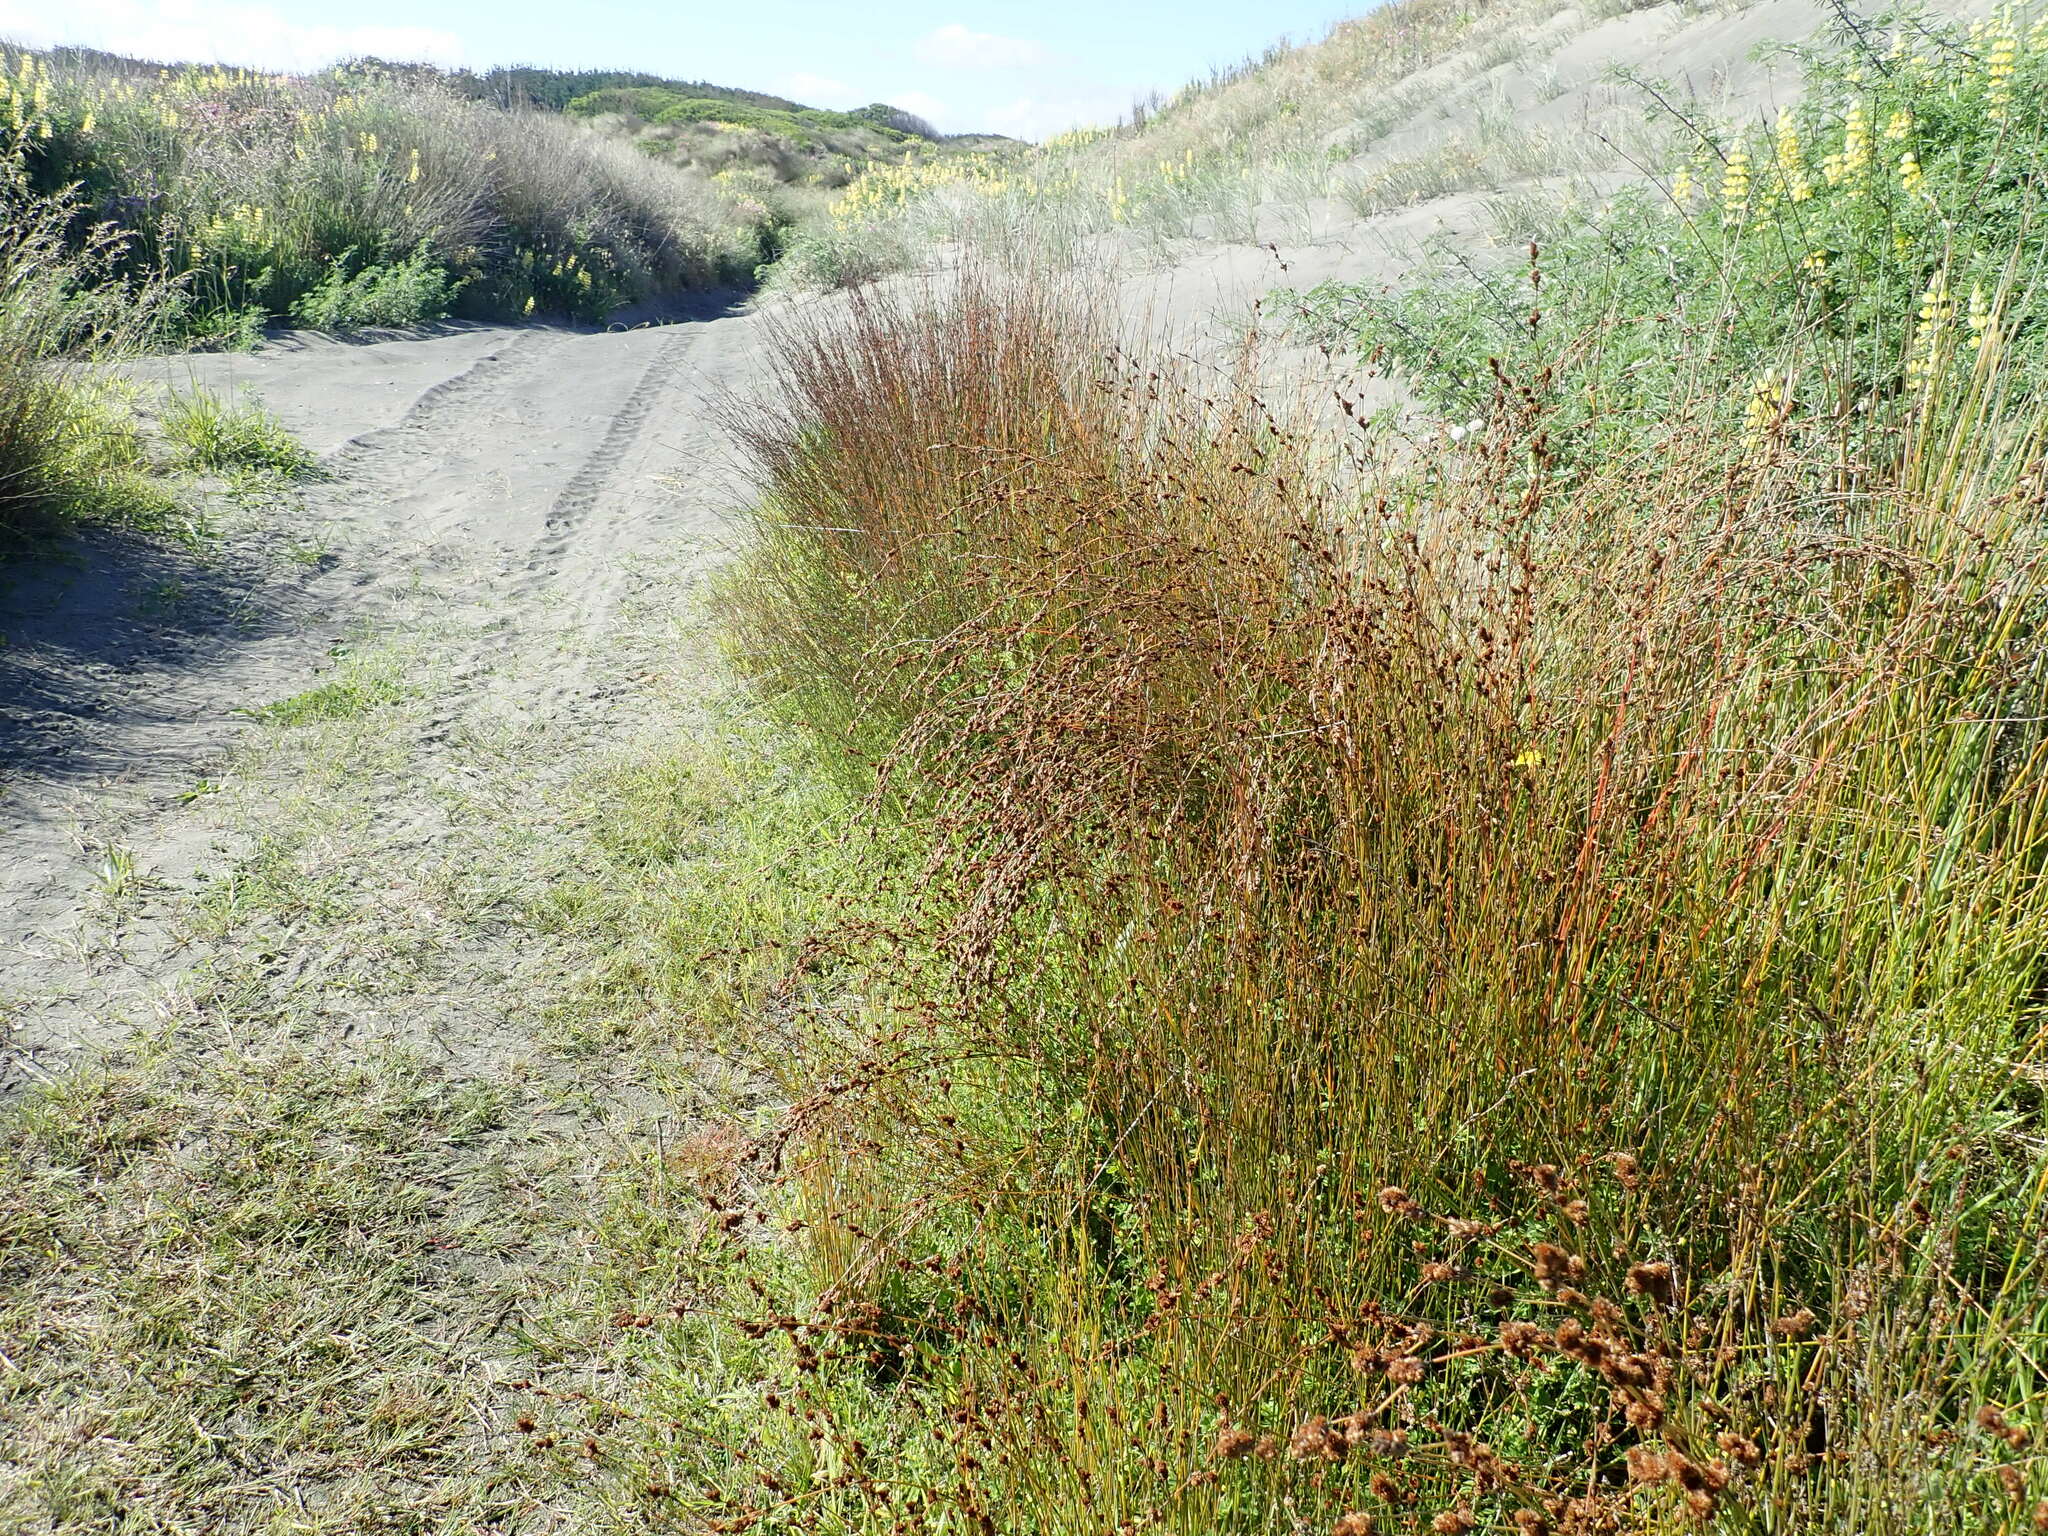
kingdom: Plantae
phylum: Tracheophyta
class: Liliopsida
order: Poales
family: Restionaceae
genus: Apodasmia
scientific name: Apodasmia similis
